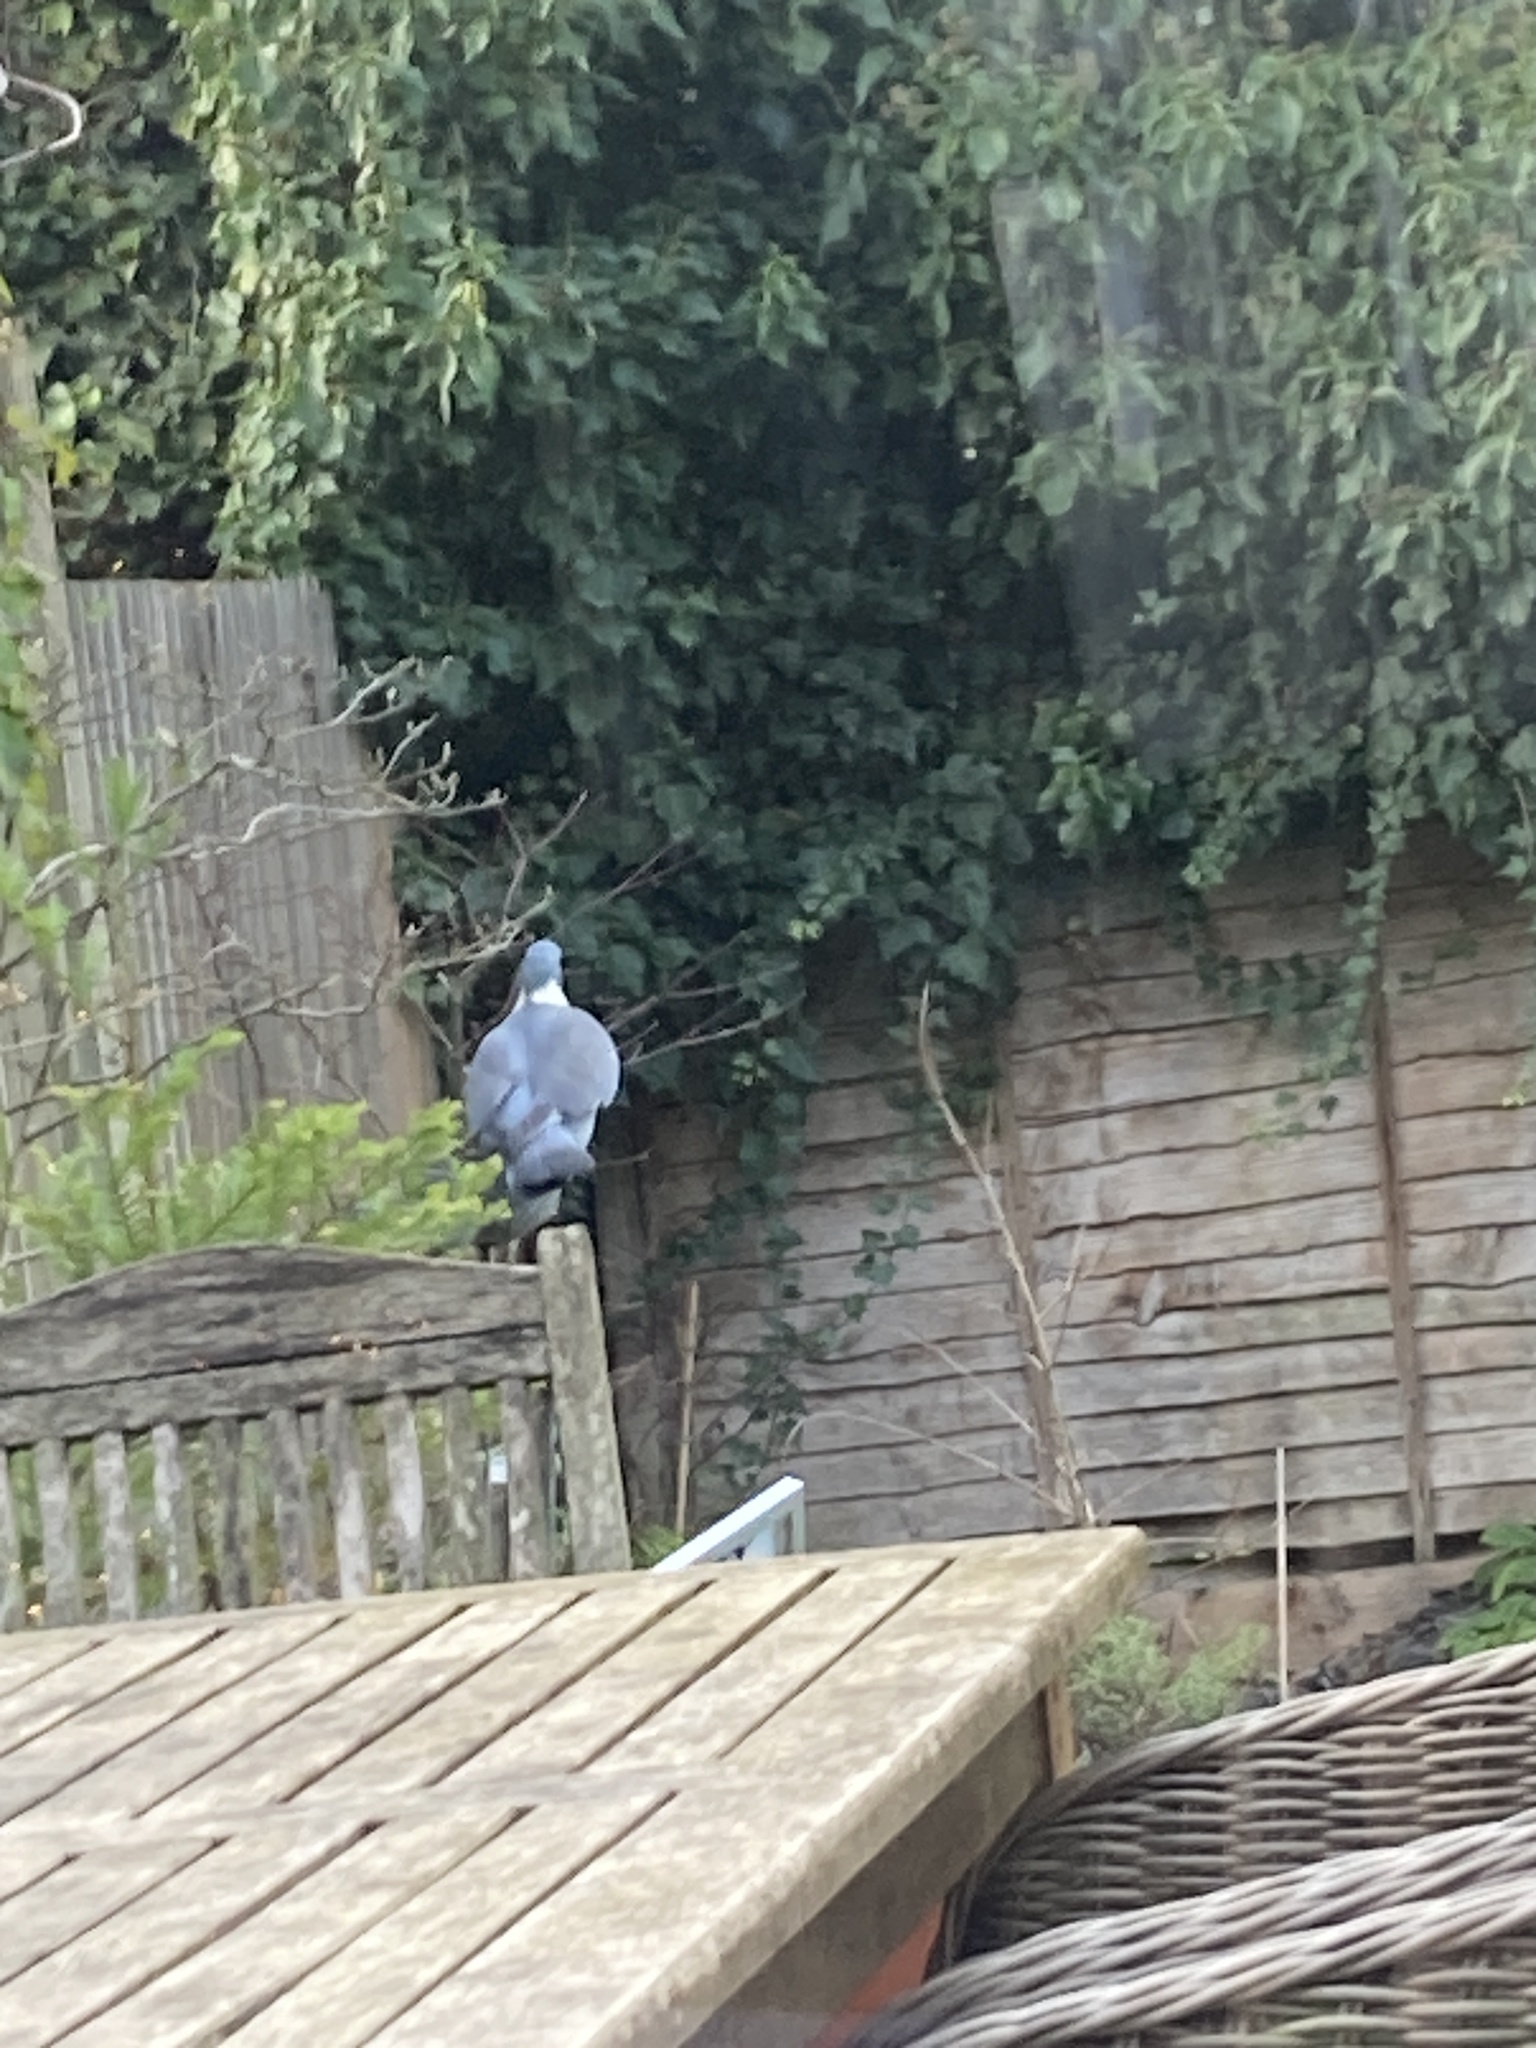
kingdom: Animalia
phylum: Chordata
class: Aves
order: Columbiformes
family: Columbidae
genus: Columba
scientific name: Columba palumbus
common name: Common wood pigeon
